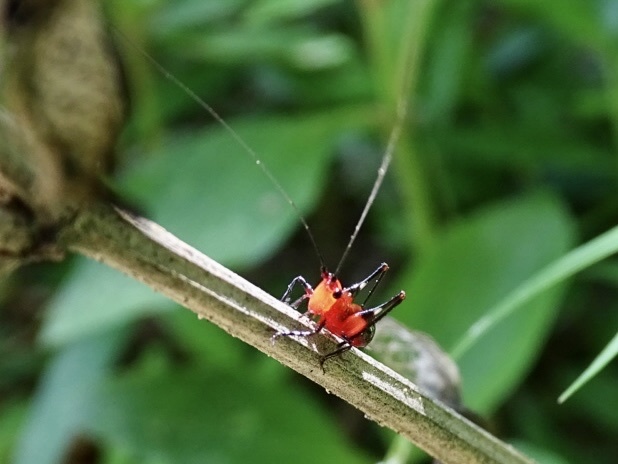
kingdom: Animalia
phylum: Arthropoda
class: Insecta
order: Orthoptera
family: Tettigoniidae
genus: Conocephalus
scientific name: Conocephalus melaenus
